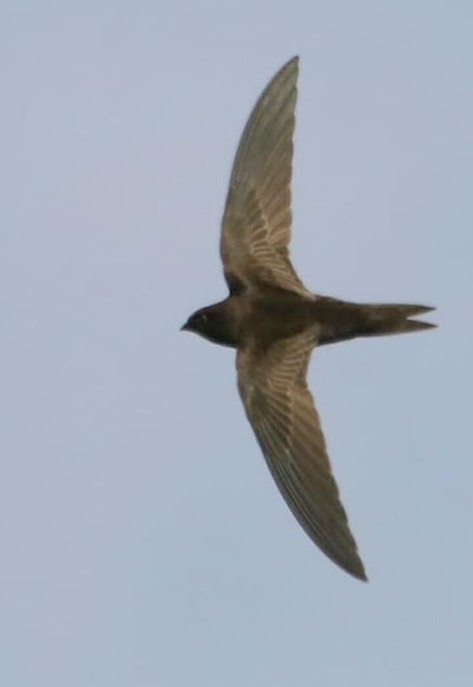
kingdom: Animalia
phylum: Chordata
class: Aves
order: Apodiformes
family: Apodidae
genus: Apus
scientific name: Apus barbatus
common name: African black swift
